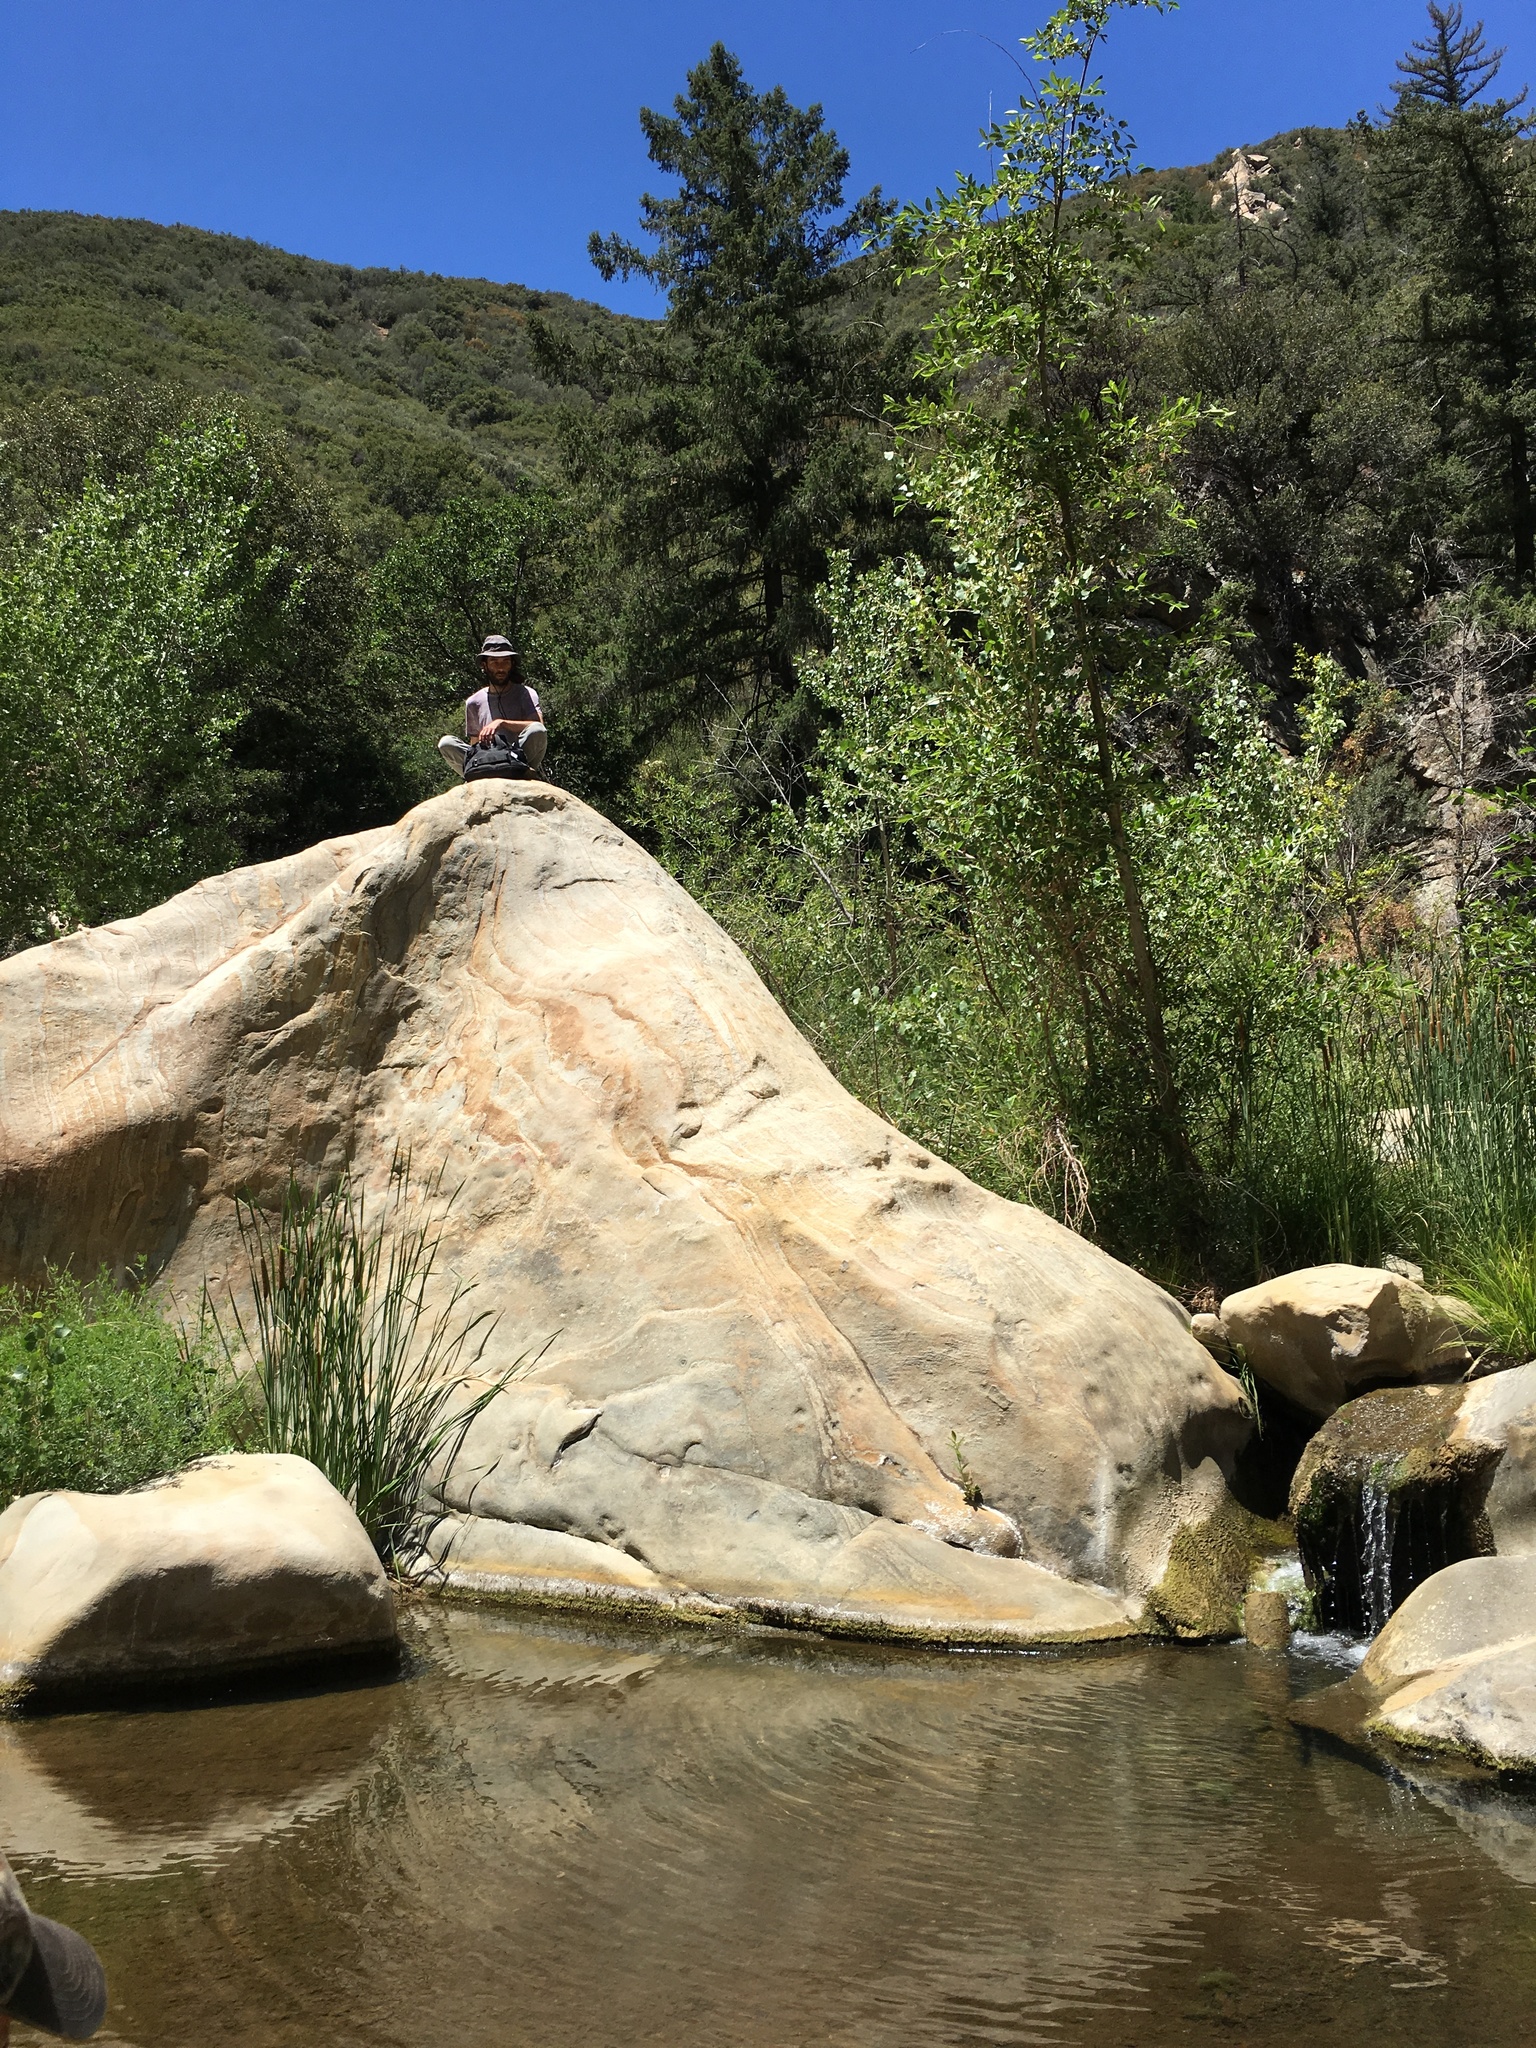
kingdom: Plantae
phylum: Tracheophyta
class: Pinopsida
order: Pinales
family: Pinaceae
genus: Pseudotsuga
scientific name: Pseudotsuga macrocarpa
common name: Big-cone douglas-fir
